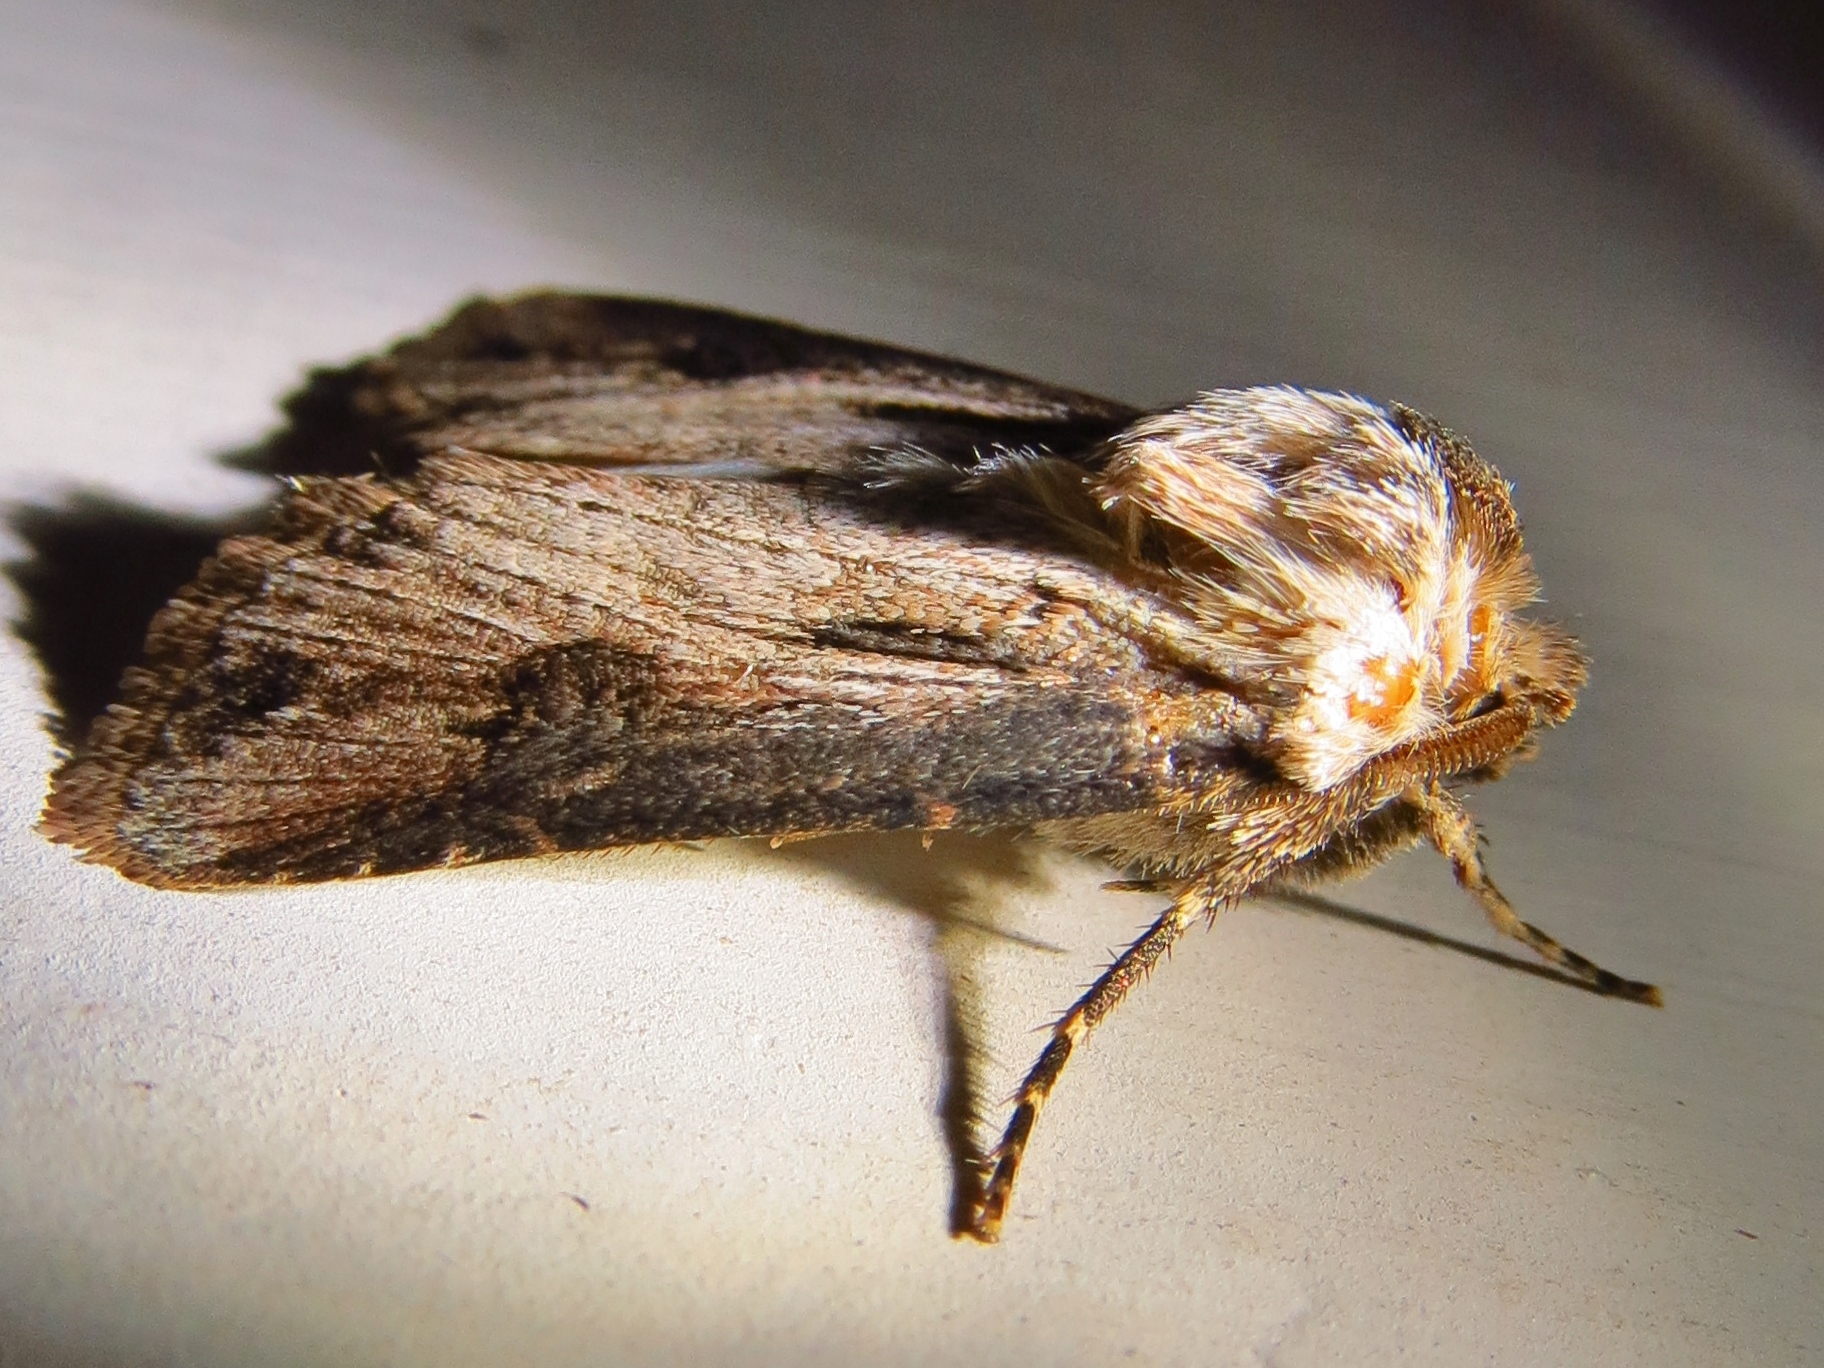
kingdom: Animalia
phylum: Arthropoda
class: Insecta
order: Lepidoptera
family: Noctuidae
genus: Agrotis
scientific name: Agrotis venerabilis
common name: Venerable dart
